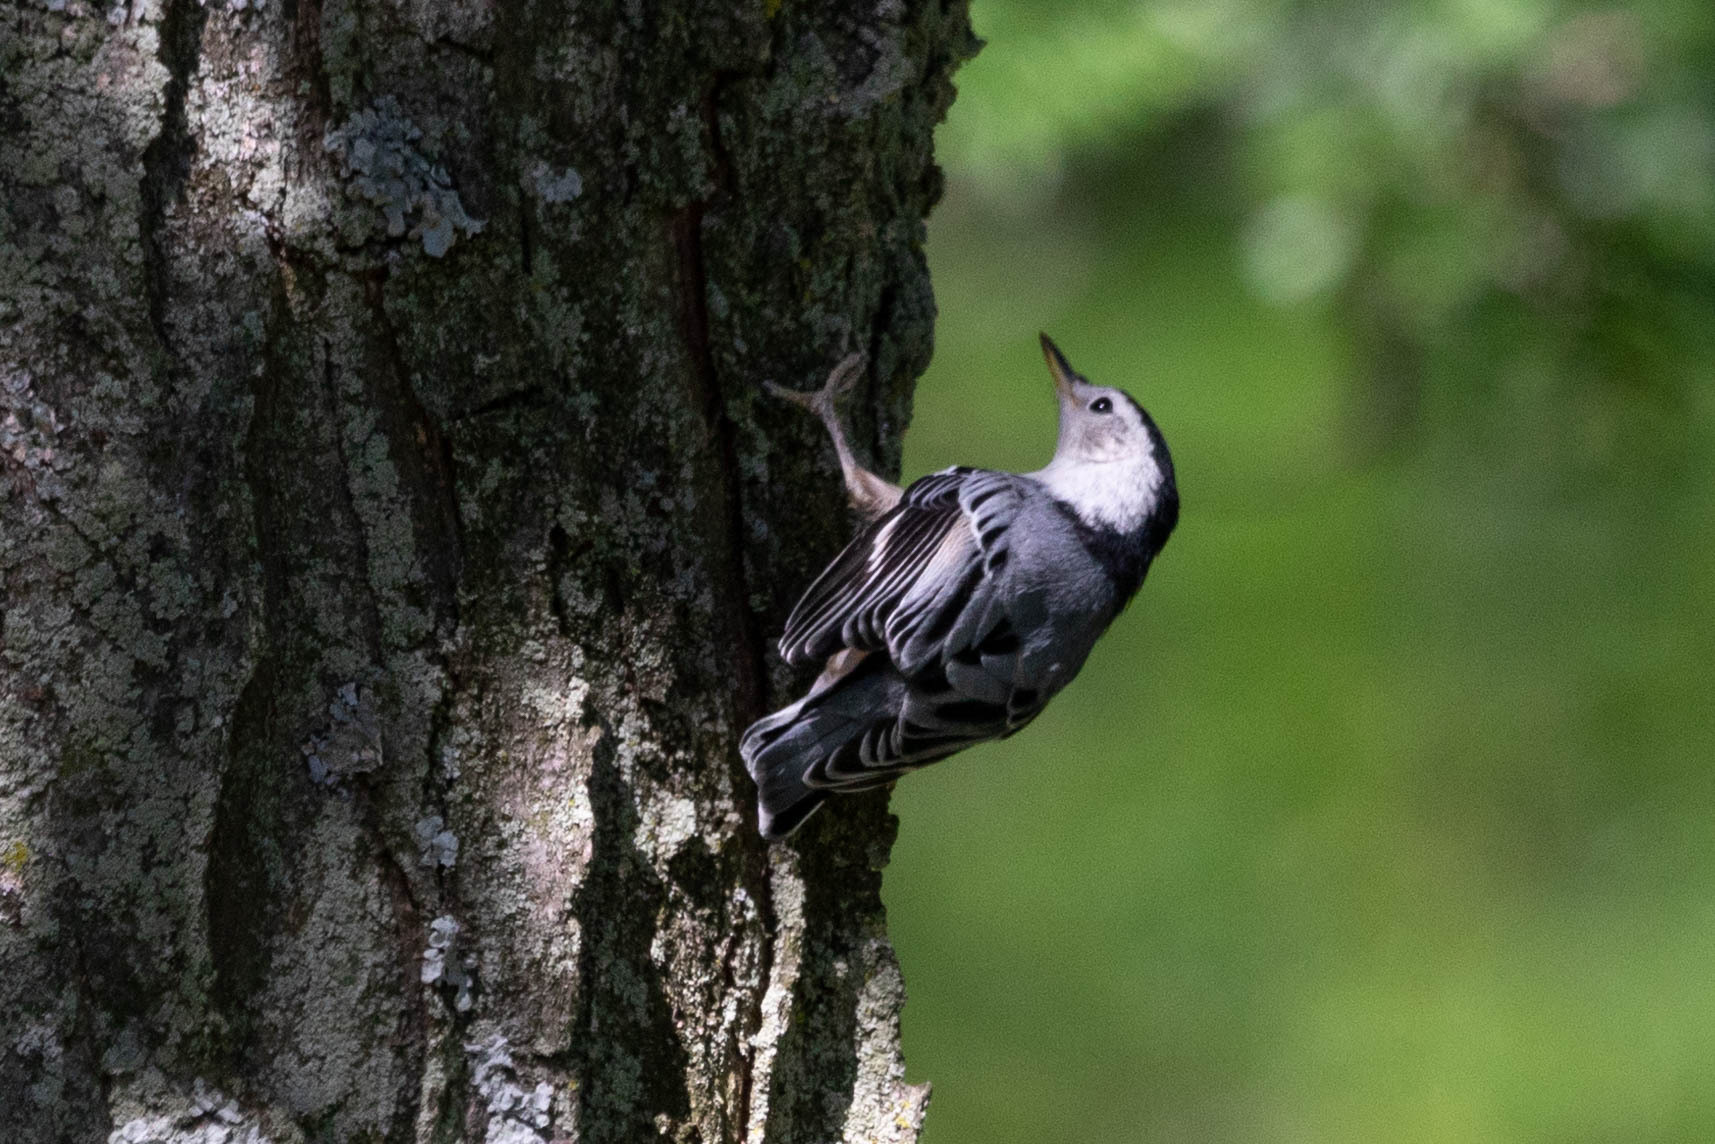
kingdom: Animalia
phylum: Chordata
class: Aves
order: Passeriformes
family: Sittidae
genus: Sitta
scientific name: Sitta carolinensis
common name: White-breasted nuthatch
